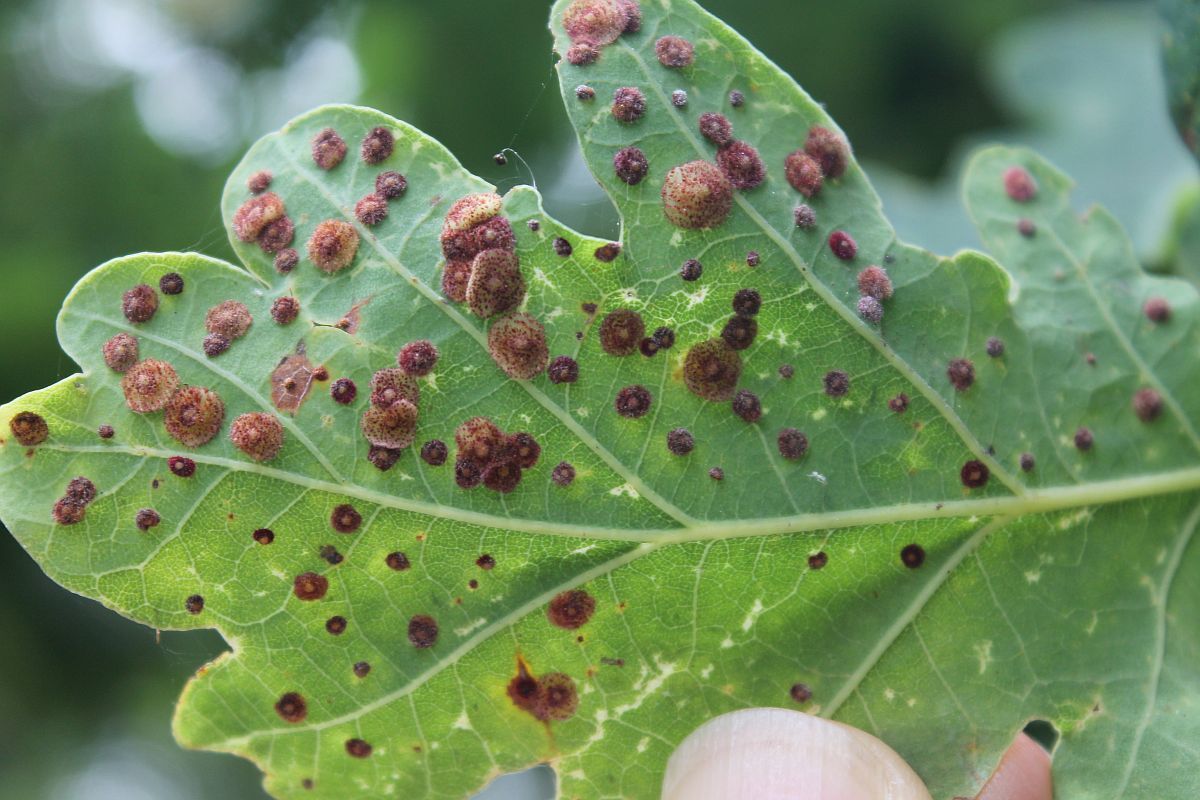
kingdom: Animalia
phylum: Arthropoda
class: Insecta
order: Hymenoptera
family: Cynipidae
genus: Neuroterus
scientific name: Neuroterus quercusbaccarum
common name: Common spangle gall
